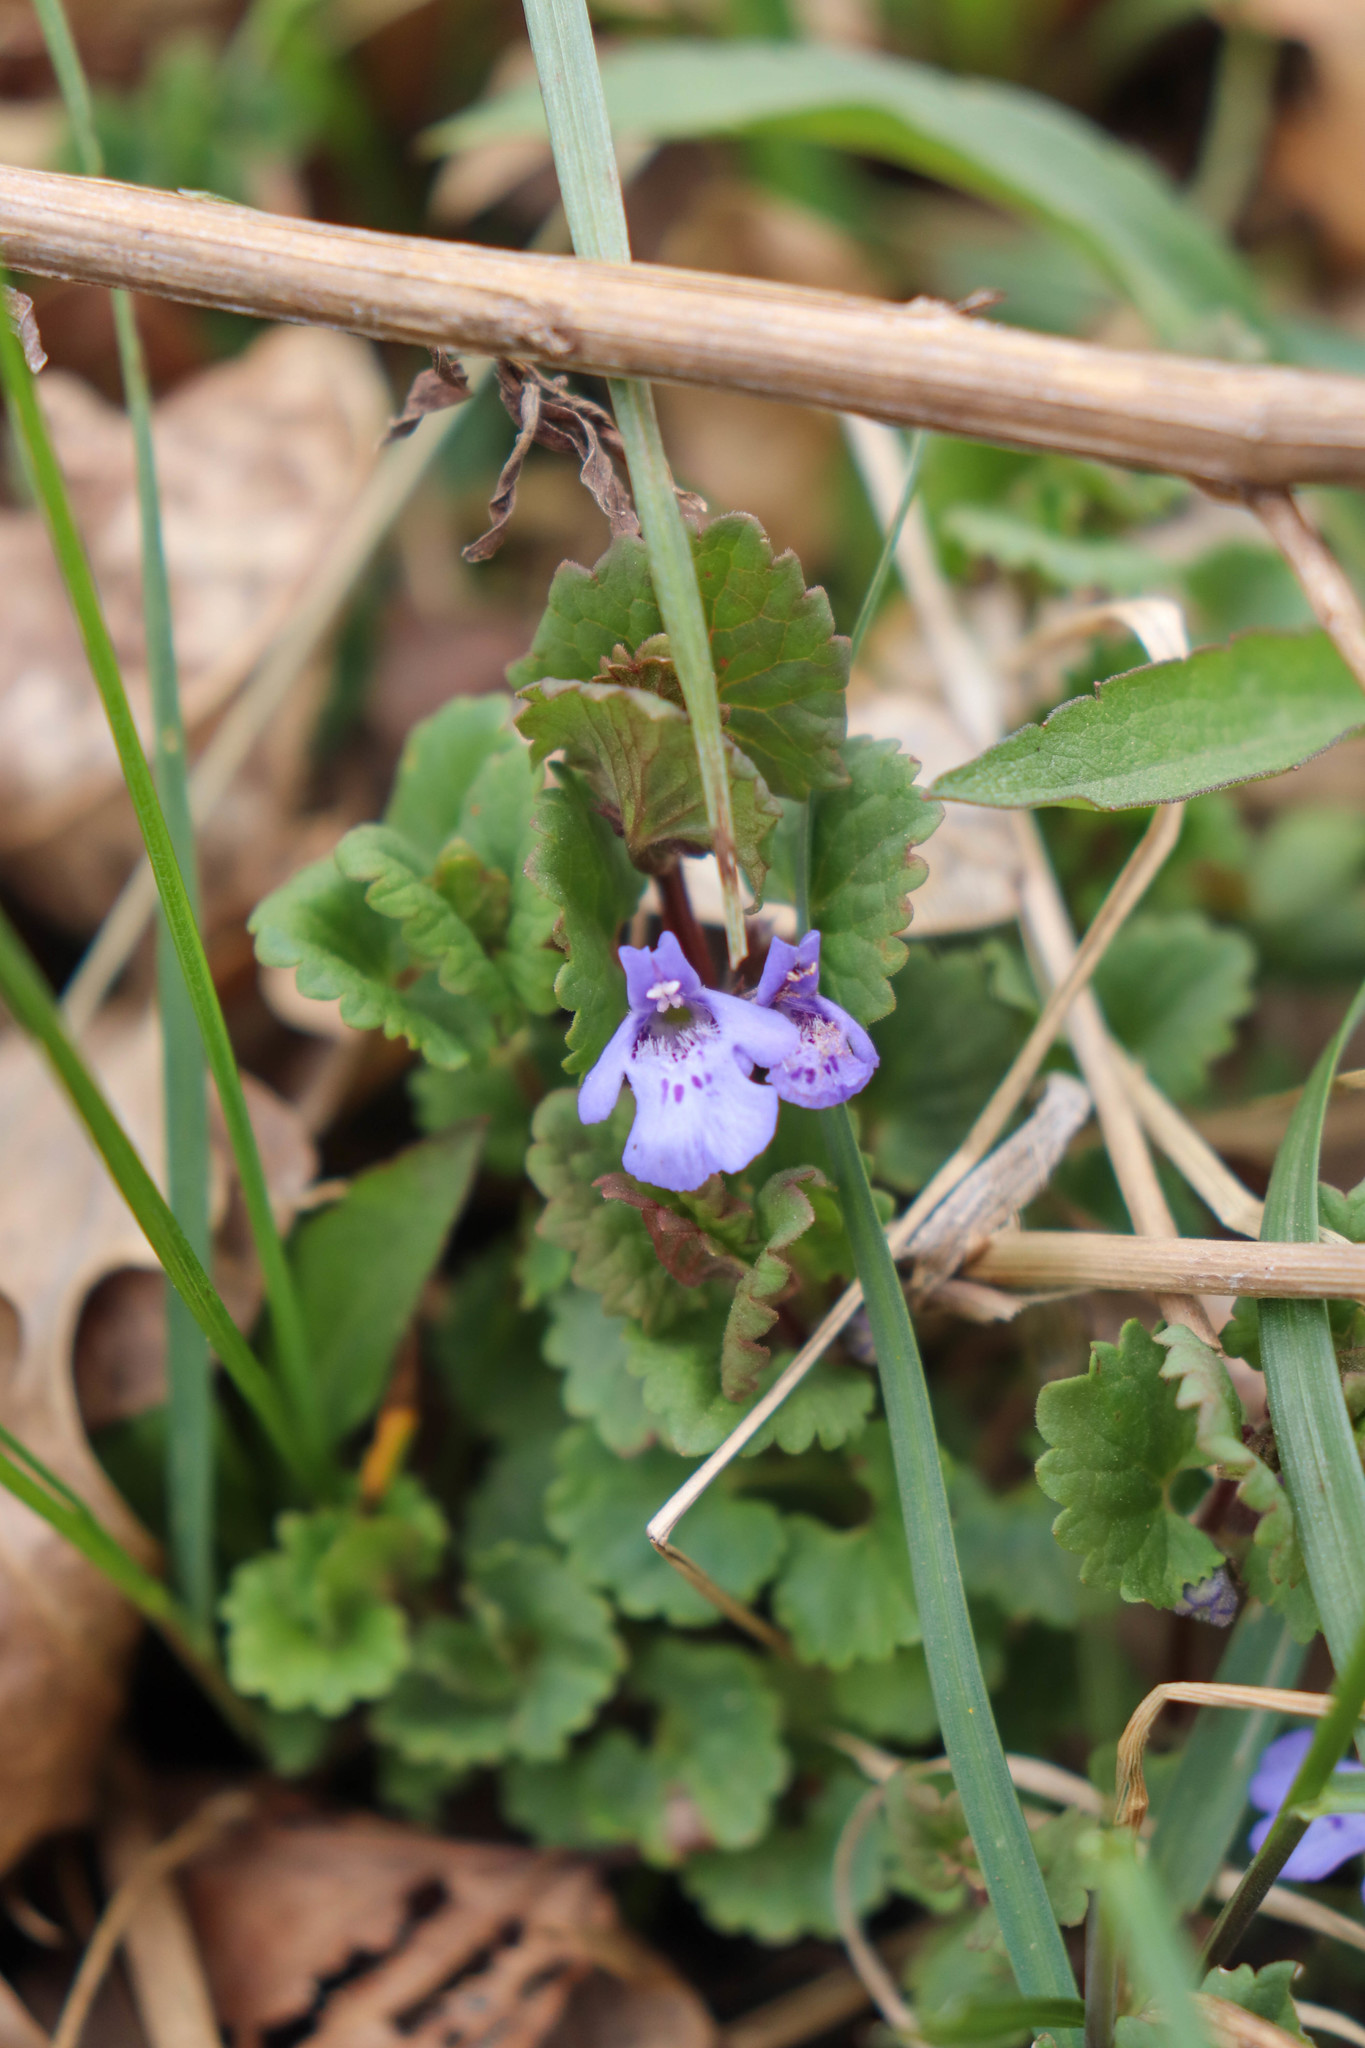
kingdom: Plantae
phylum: Tracheophyta
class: Magnoliopsida
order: Lamiales
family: Lamiaceae
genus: Glechoma
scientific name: Glechoma hederacea
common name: Ground ivy
